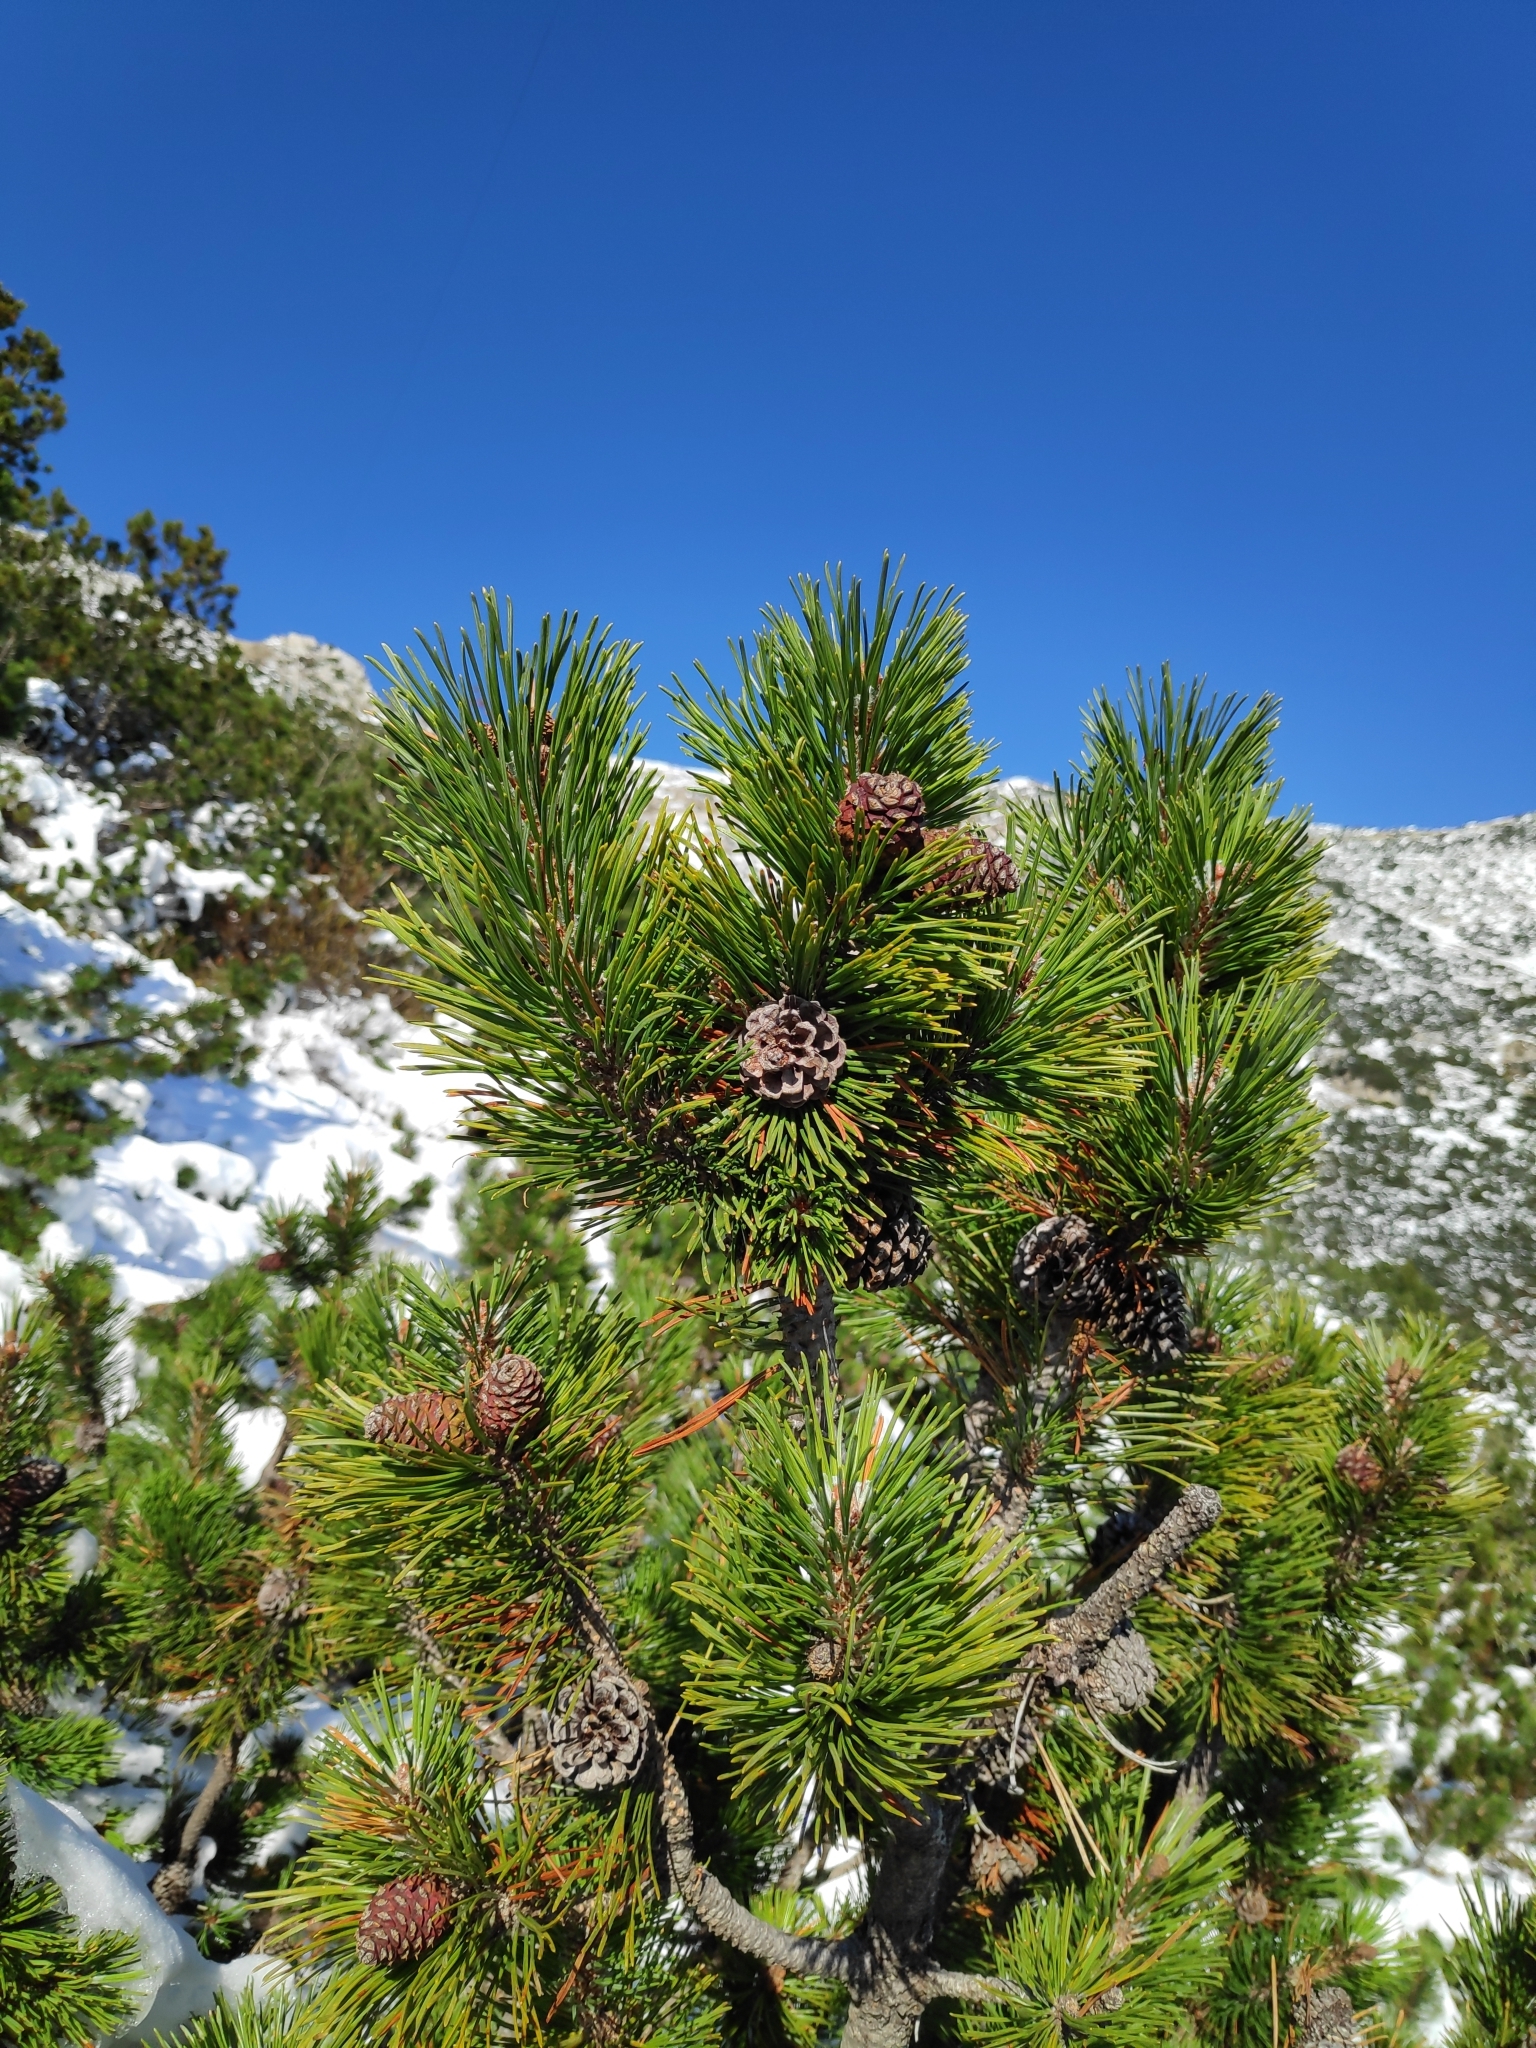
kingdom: Plantae
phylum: Tracheophyta
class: Pinopsida
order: Pinales
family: Pinaceae
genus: Pinus
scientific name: Pinus mugo
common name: Mugo pine
